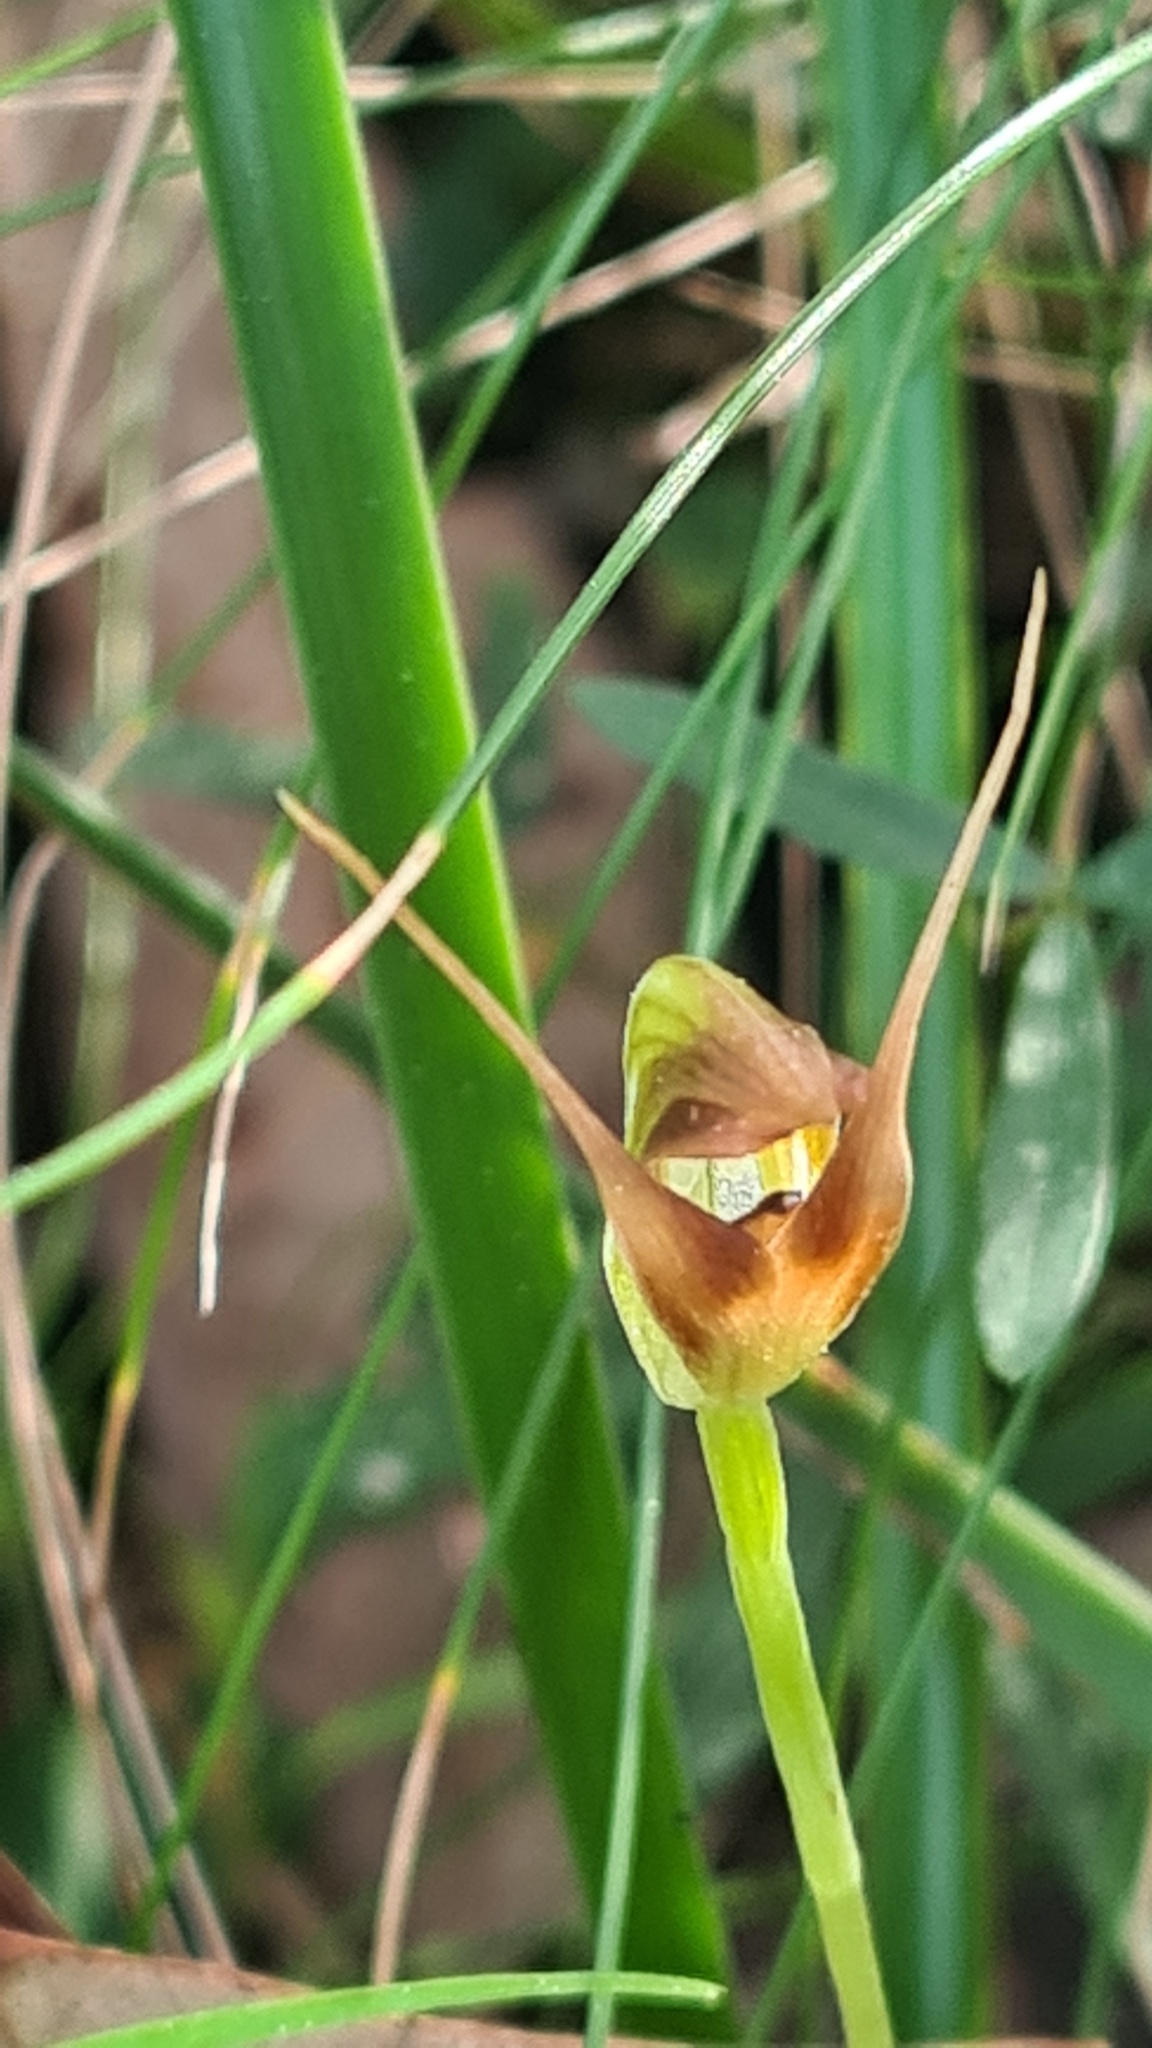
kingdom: Plantae
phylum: Tracheophyta
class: Liliopsida
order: Asparagales
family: Orchidaceae
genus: Pterostylis
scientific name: Pterostylis oblonga
